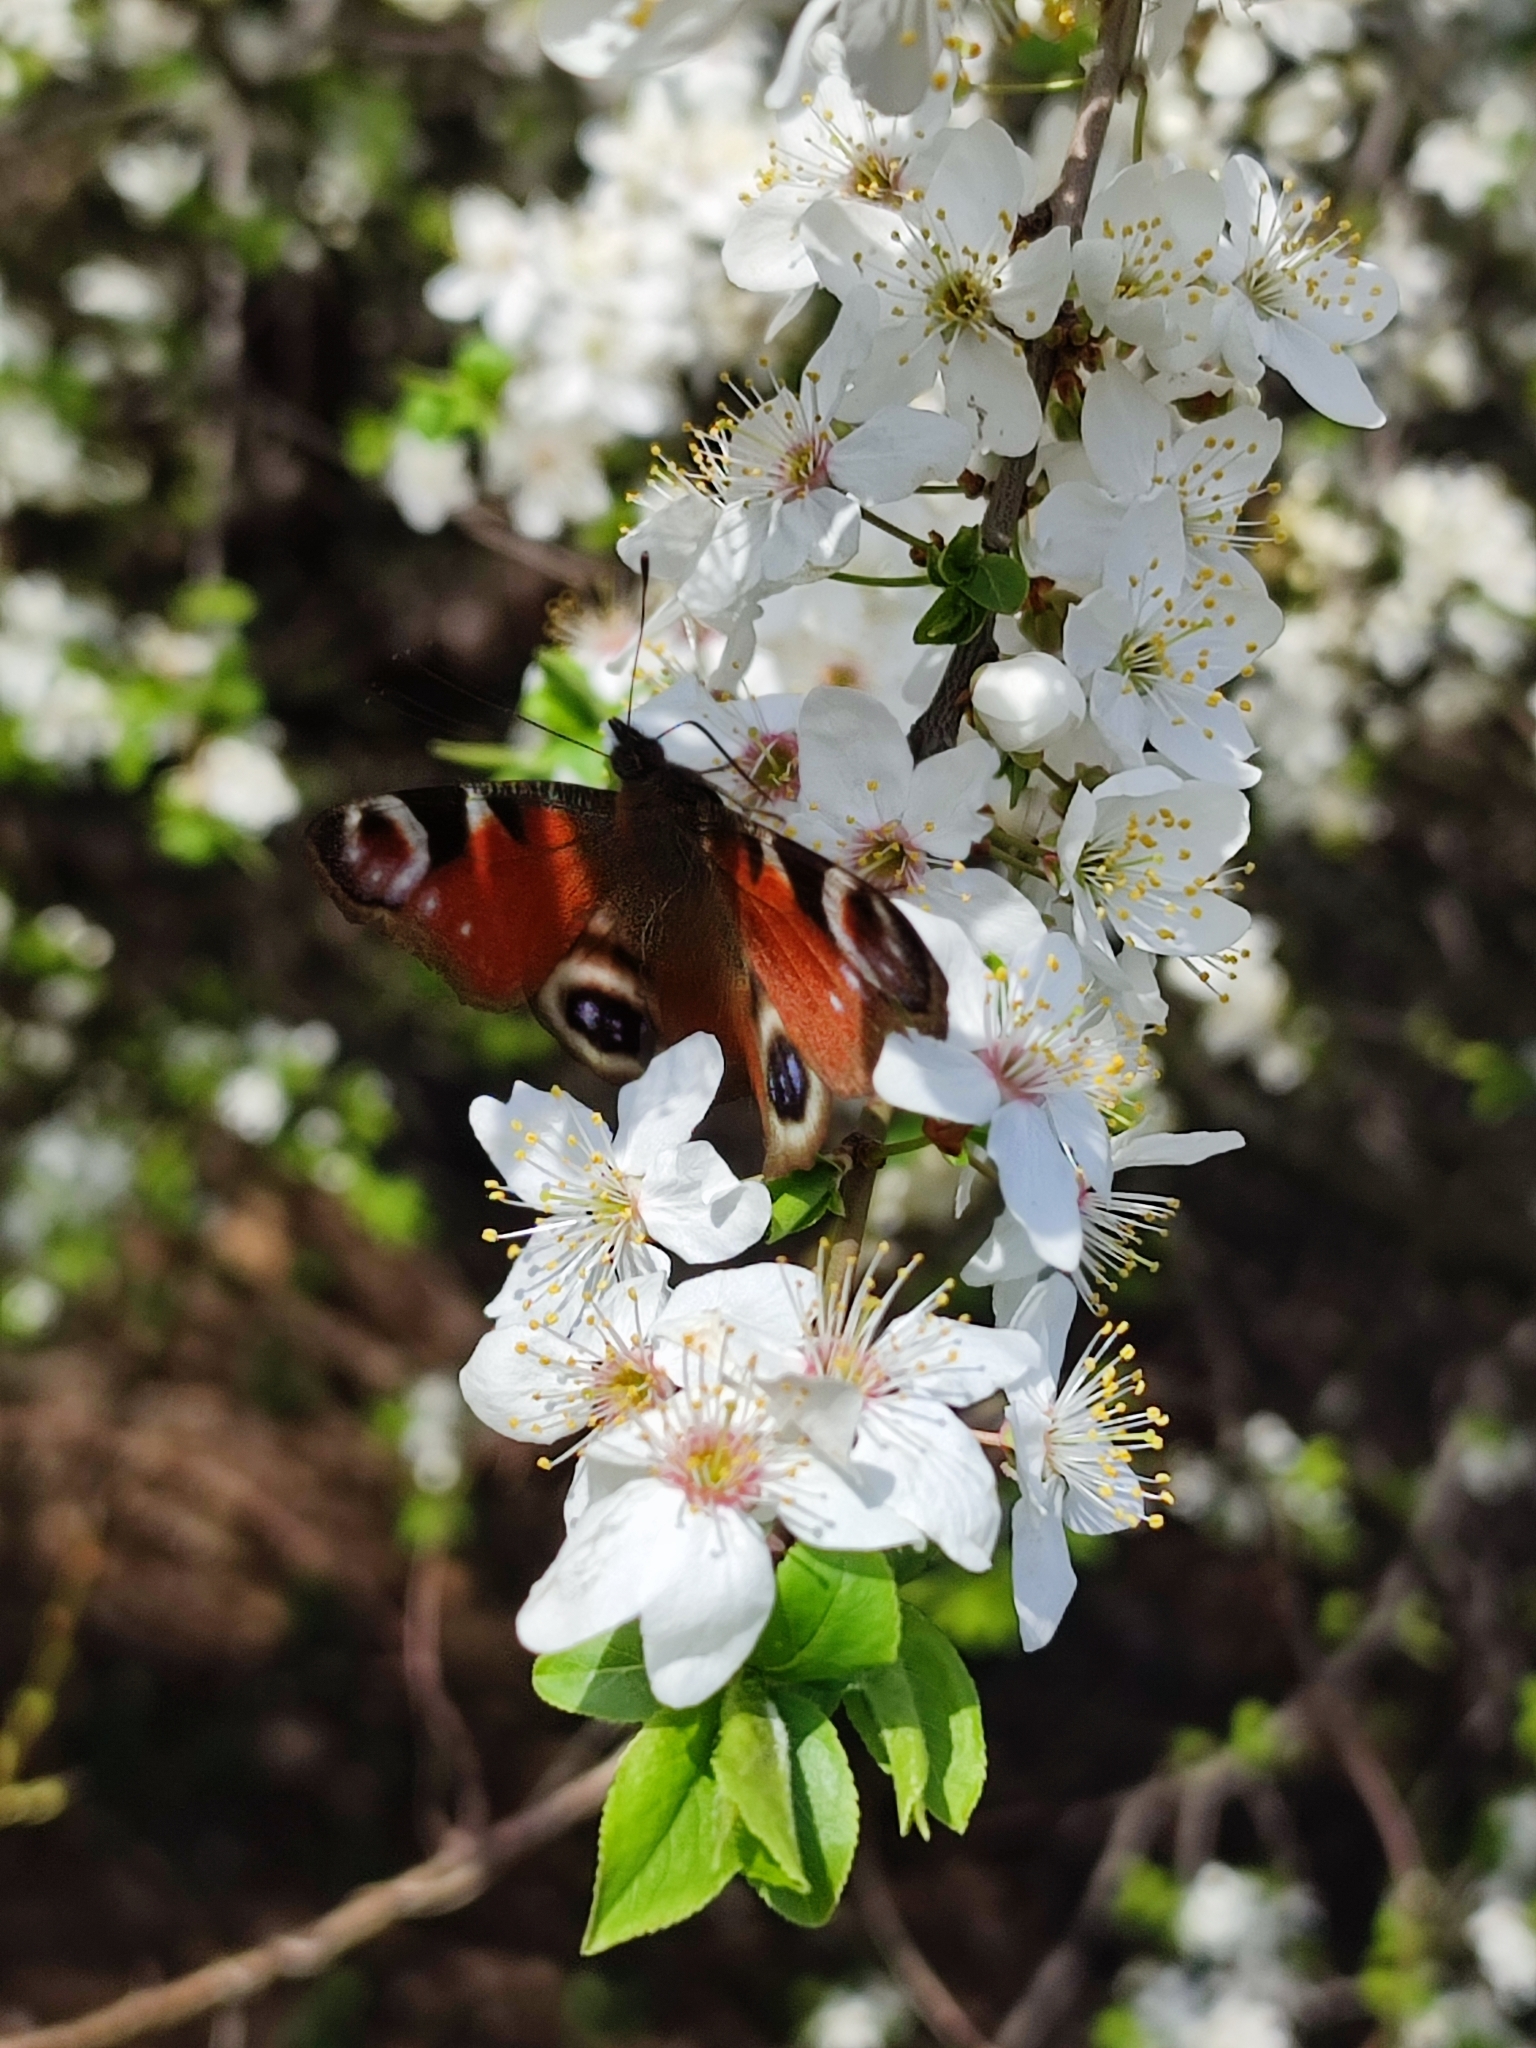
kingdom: Animalia
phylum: Arthropoda
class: Insecta
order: Lepidoptera
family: Nymphalidae
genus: Aglais
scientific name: Aglais io
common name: Peacock
